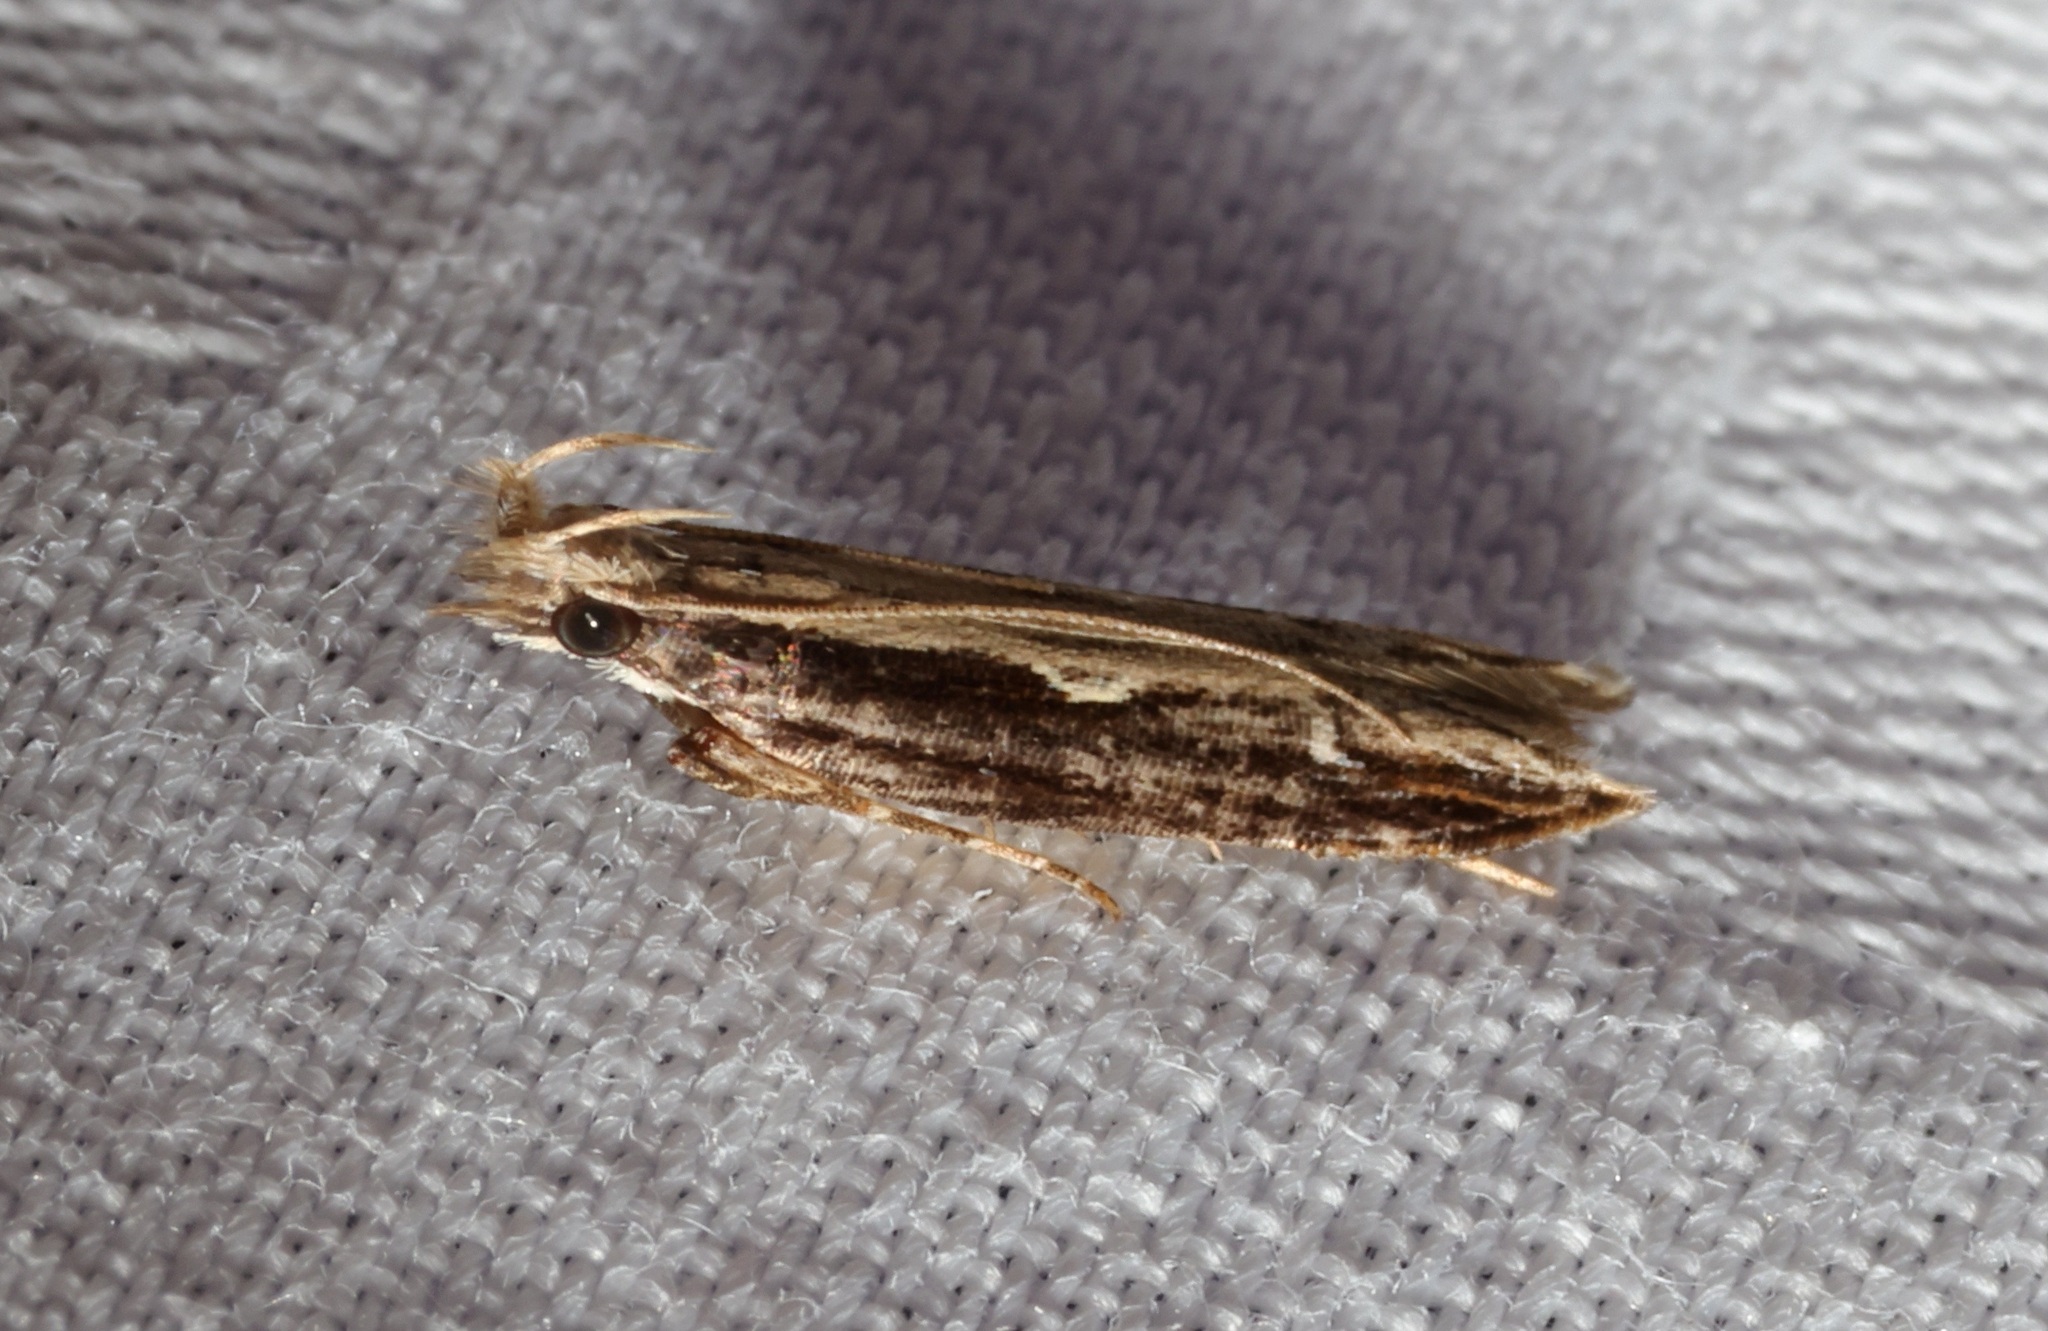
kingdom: Animalia
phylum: Arthropoda
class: Insecta
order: Lepidoptera
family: Gelechiidae
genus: Hypatima
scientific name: Hypatima spathota
